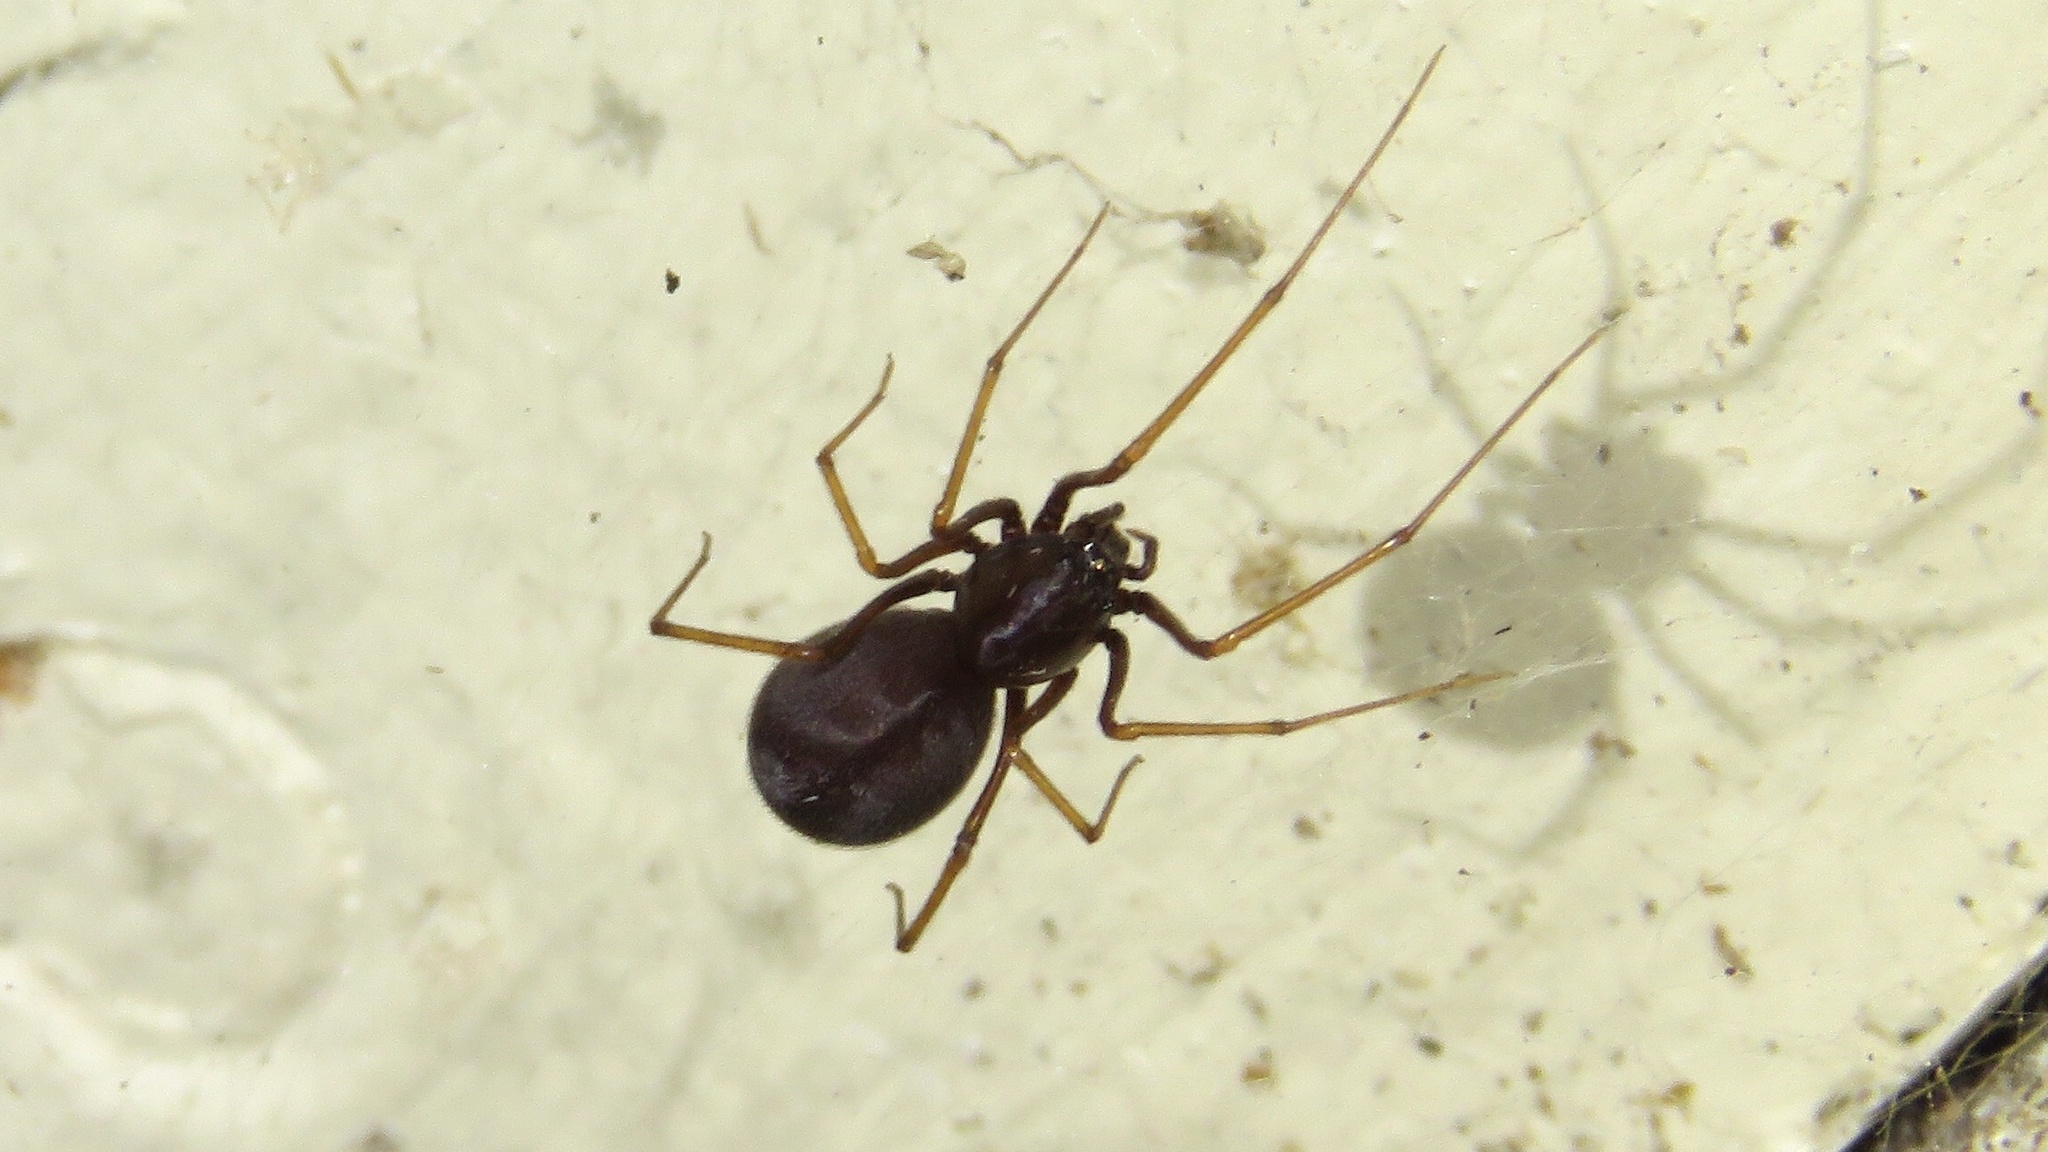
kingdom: Animalia
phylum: Arthropoda
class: Arachnida
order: Araneae
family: Scytodidae
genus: Scytodes
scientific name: Scytodes fusca
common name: Spitting spiders
